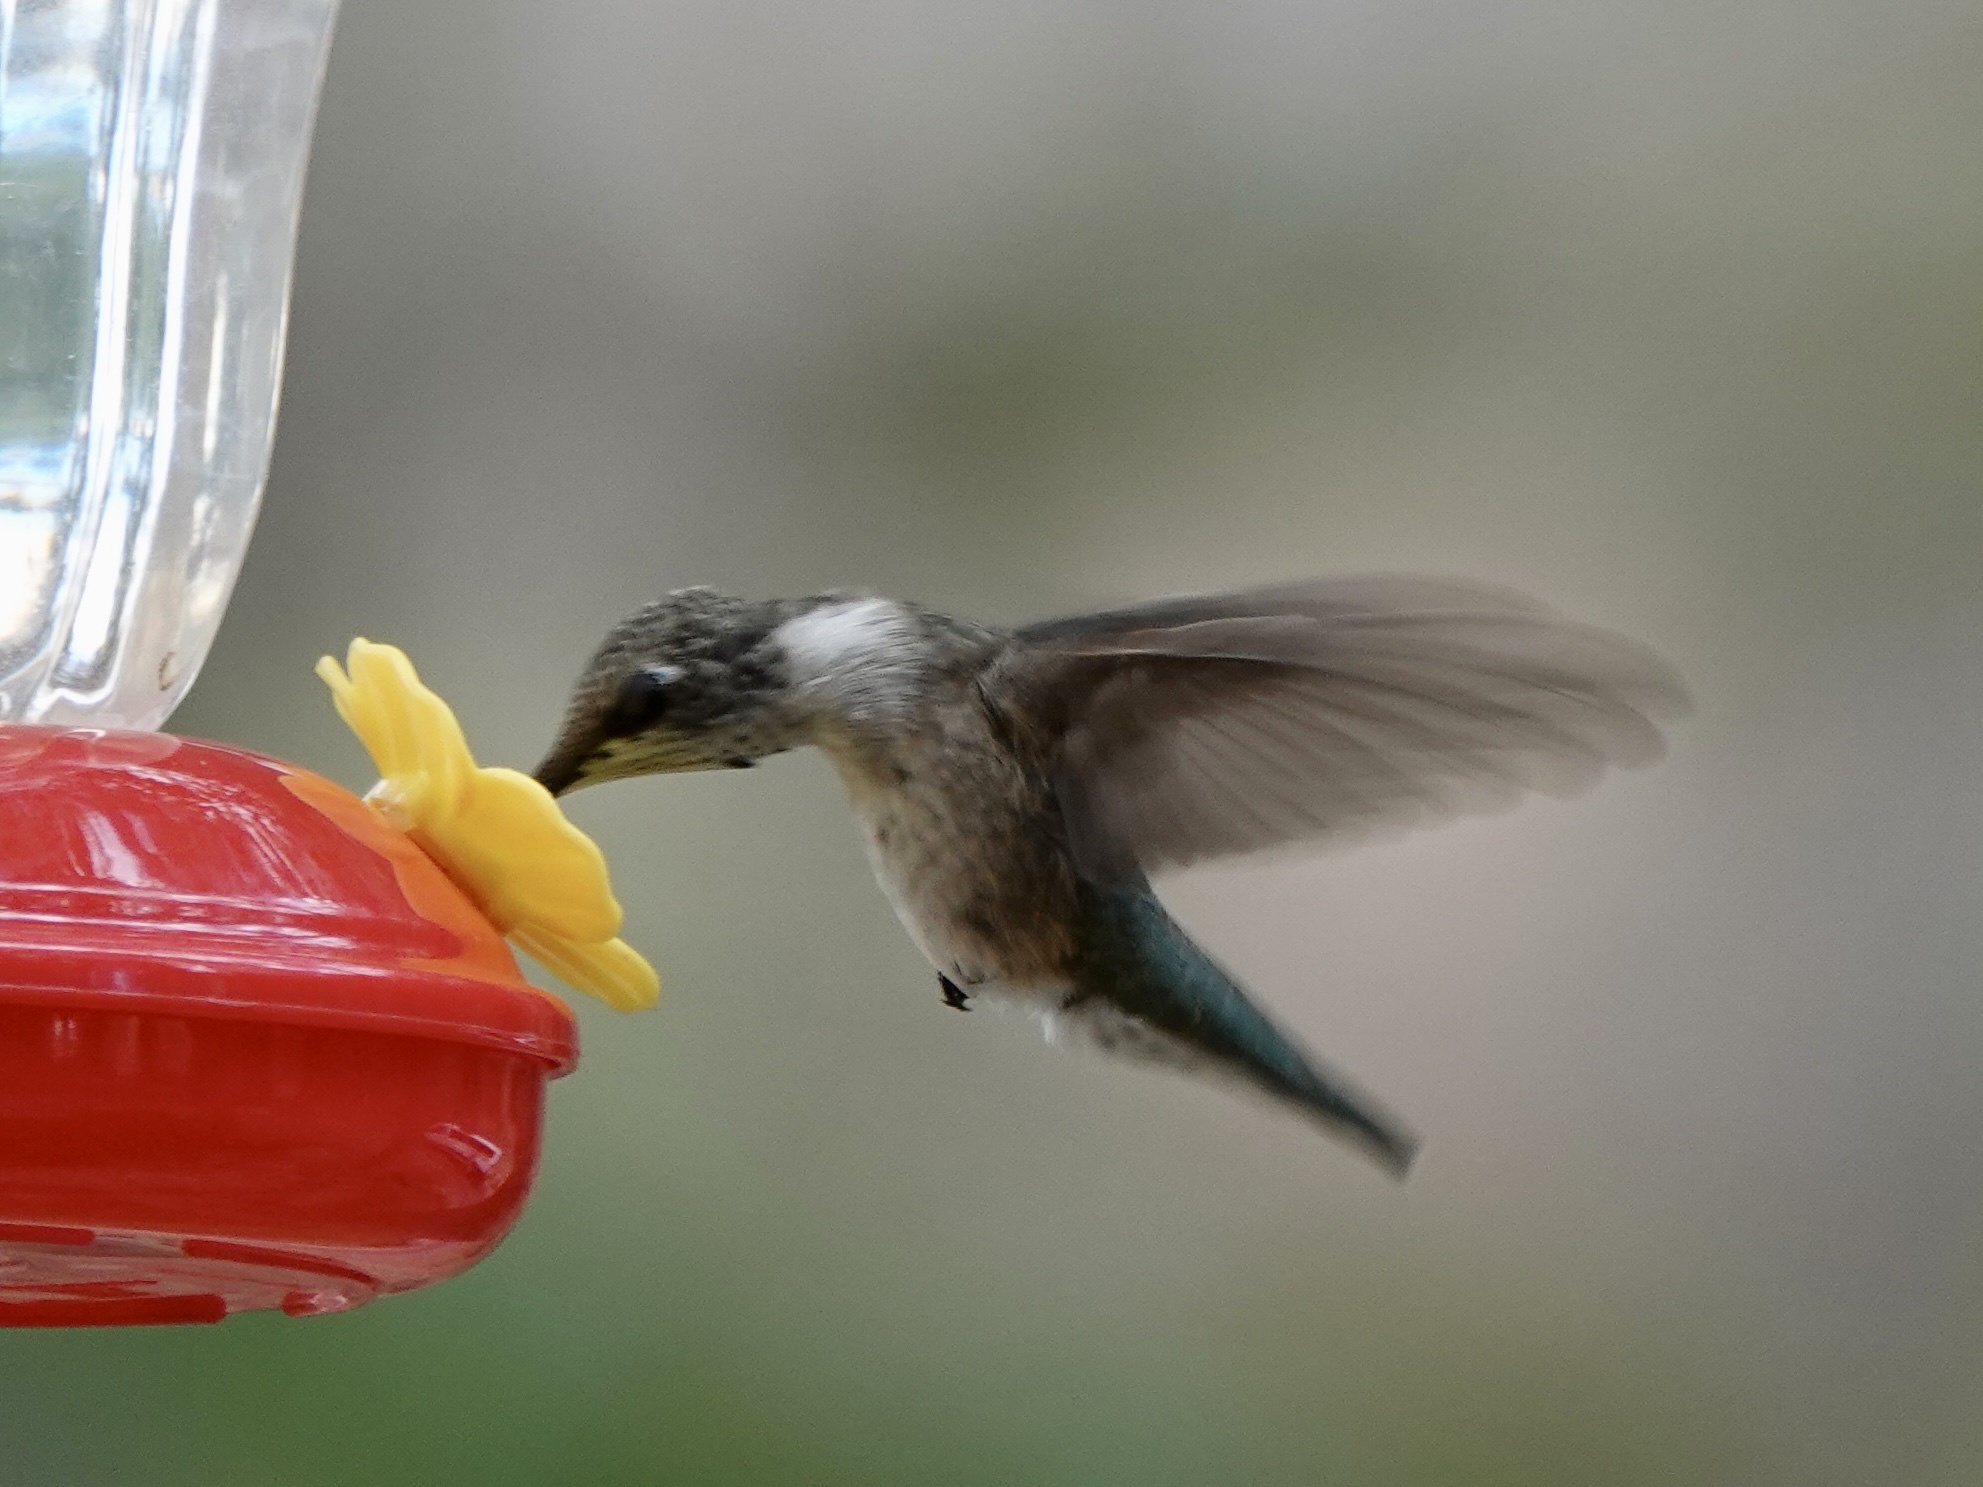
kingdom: Animalia
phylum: Chordata
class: Aves
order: Apodiformes
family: Trochilidae
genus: Archilochus
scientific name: Archilochus alexandri
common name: Black-chinned hummingbird
